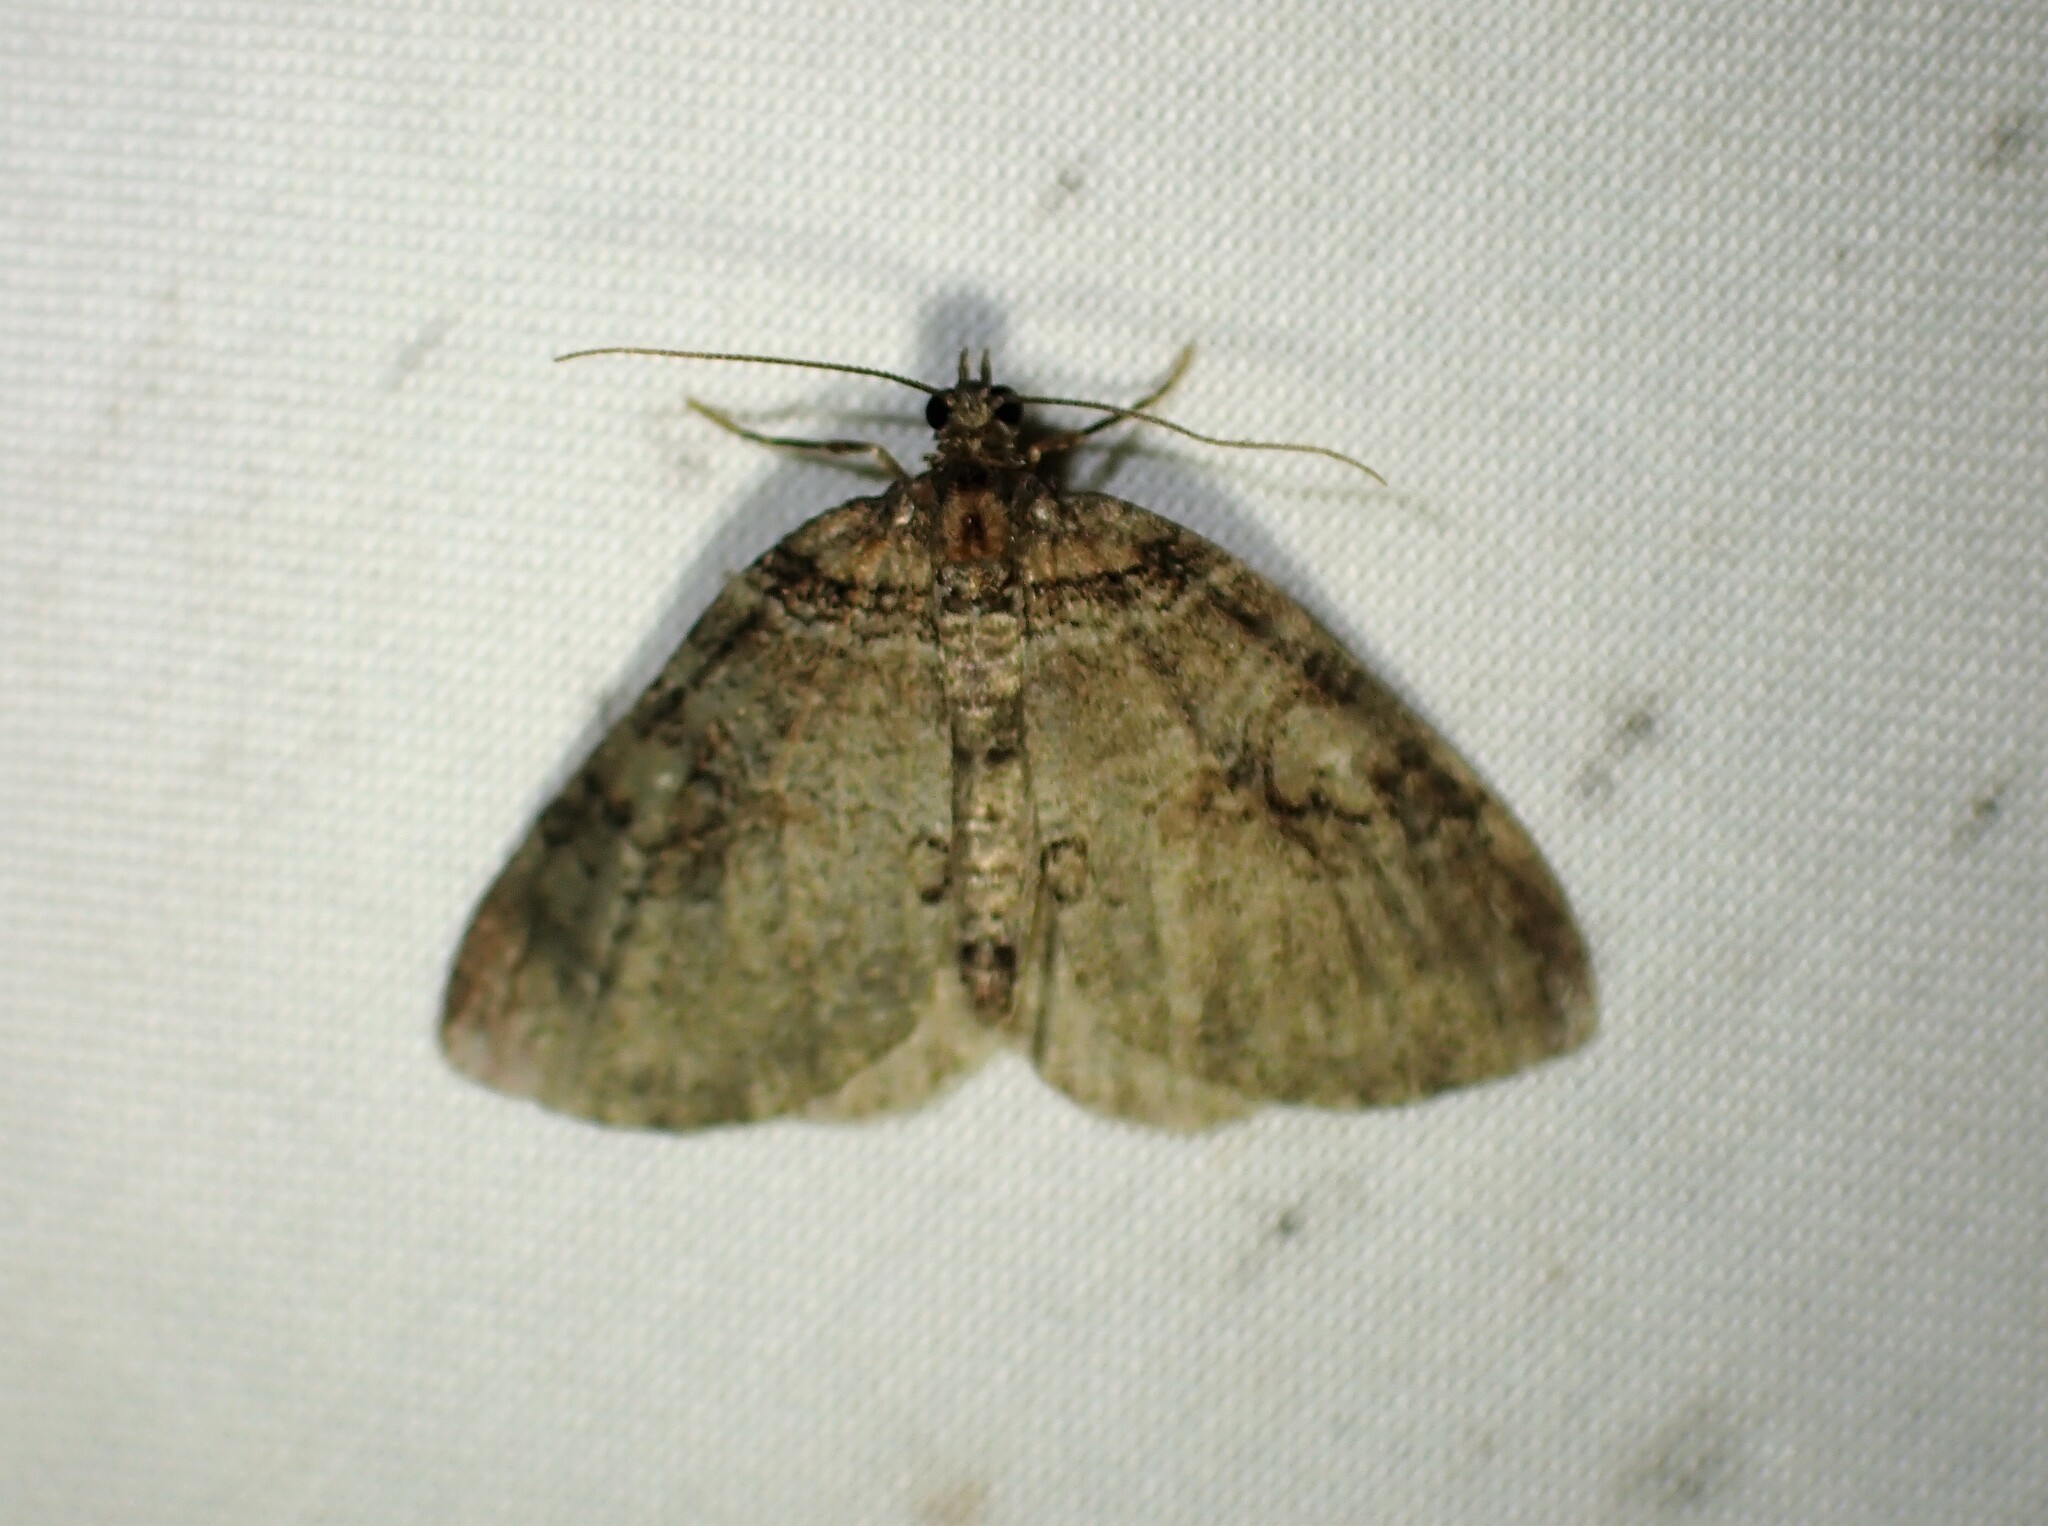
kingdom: Animalia
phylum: Arthropoda
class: Insecta
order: Lepidoptera
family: Geometridae
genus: Plemyria
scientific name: Plemyria georgii
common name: George's carpet moth
